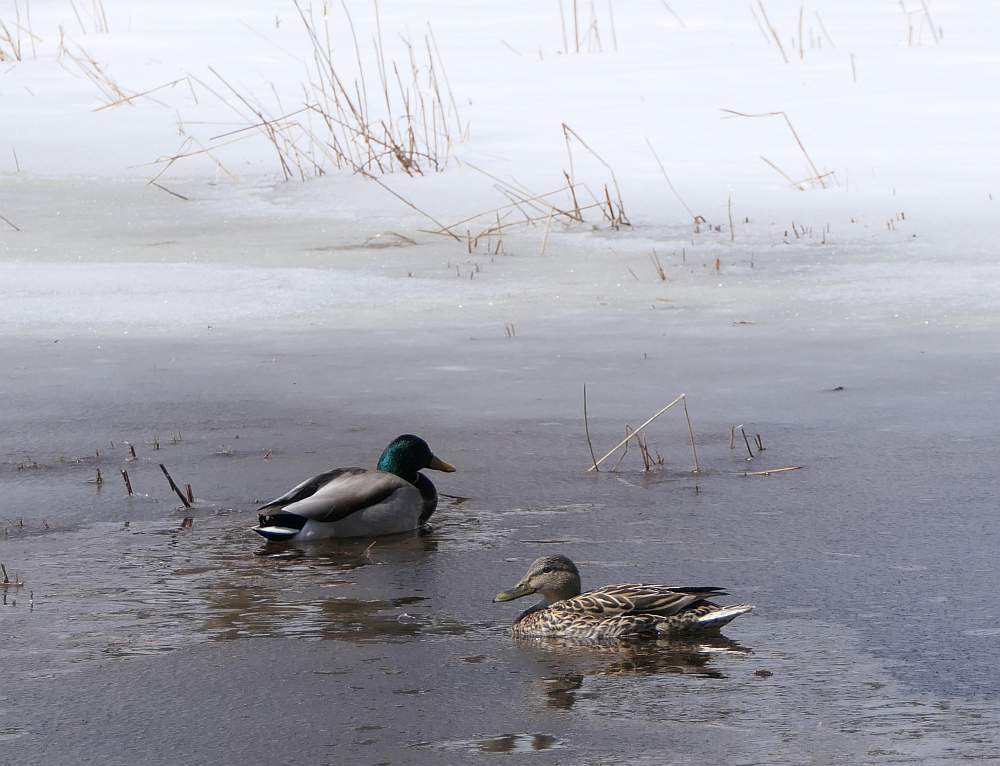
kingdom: Animalia
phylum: Chordata
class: Aves
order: Anseriformes
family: Anatidae
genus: Anas
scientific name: Anas platyrhynchos
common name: Mallard
